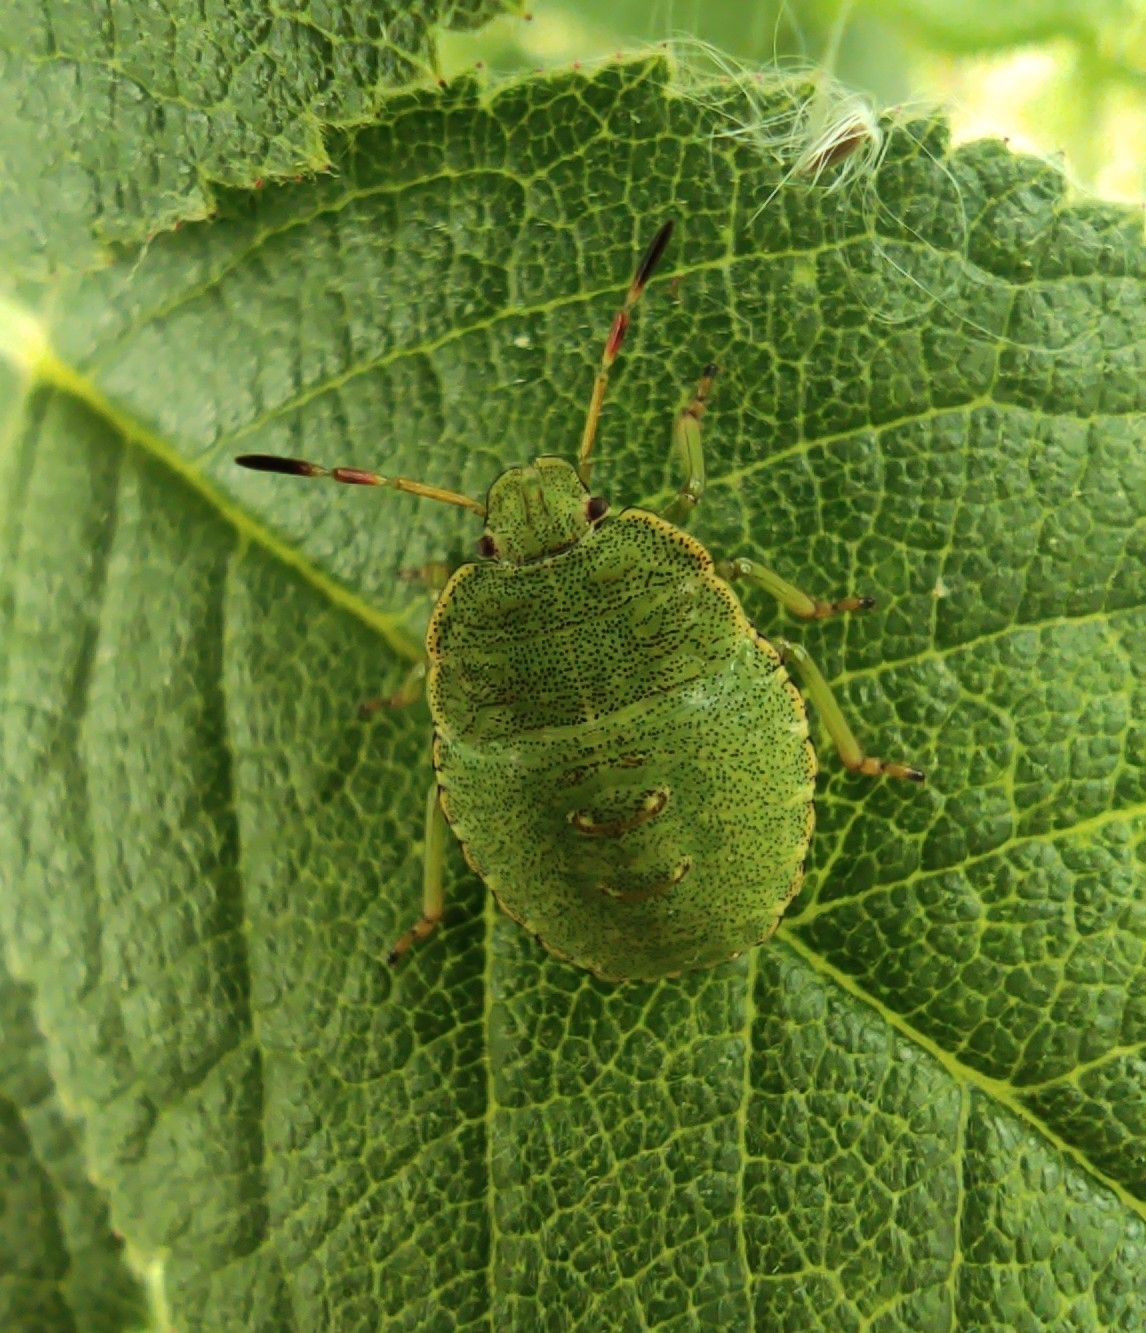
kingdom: Animalia
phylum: Arthropoda
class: Insecta
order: Hemiptera
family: Pentatomidae
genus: Palomena
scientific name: Palomena prasina
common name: Green shieldbug
